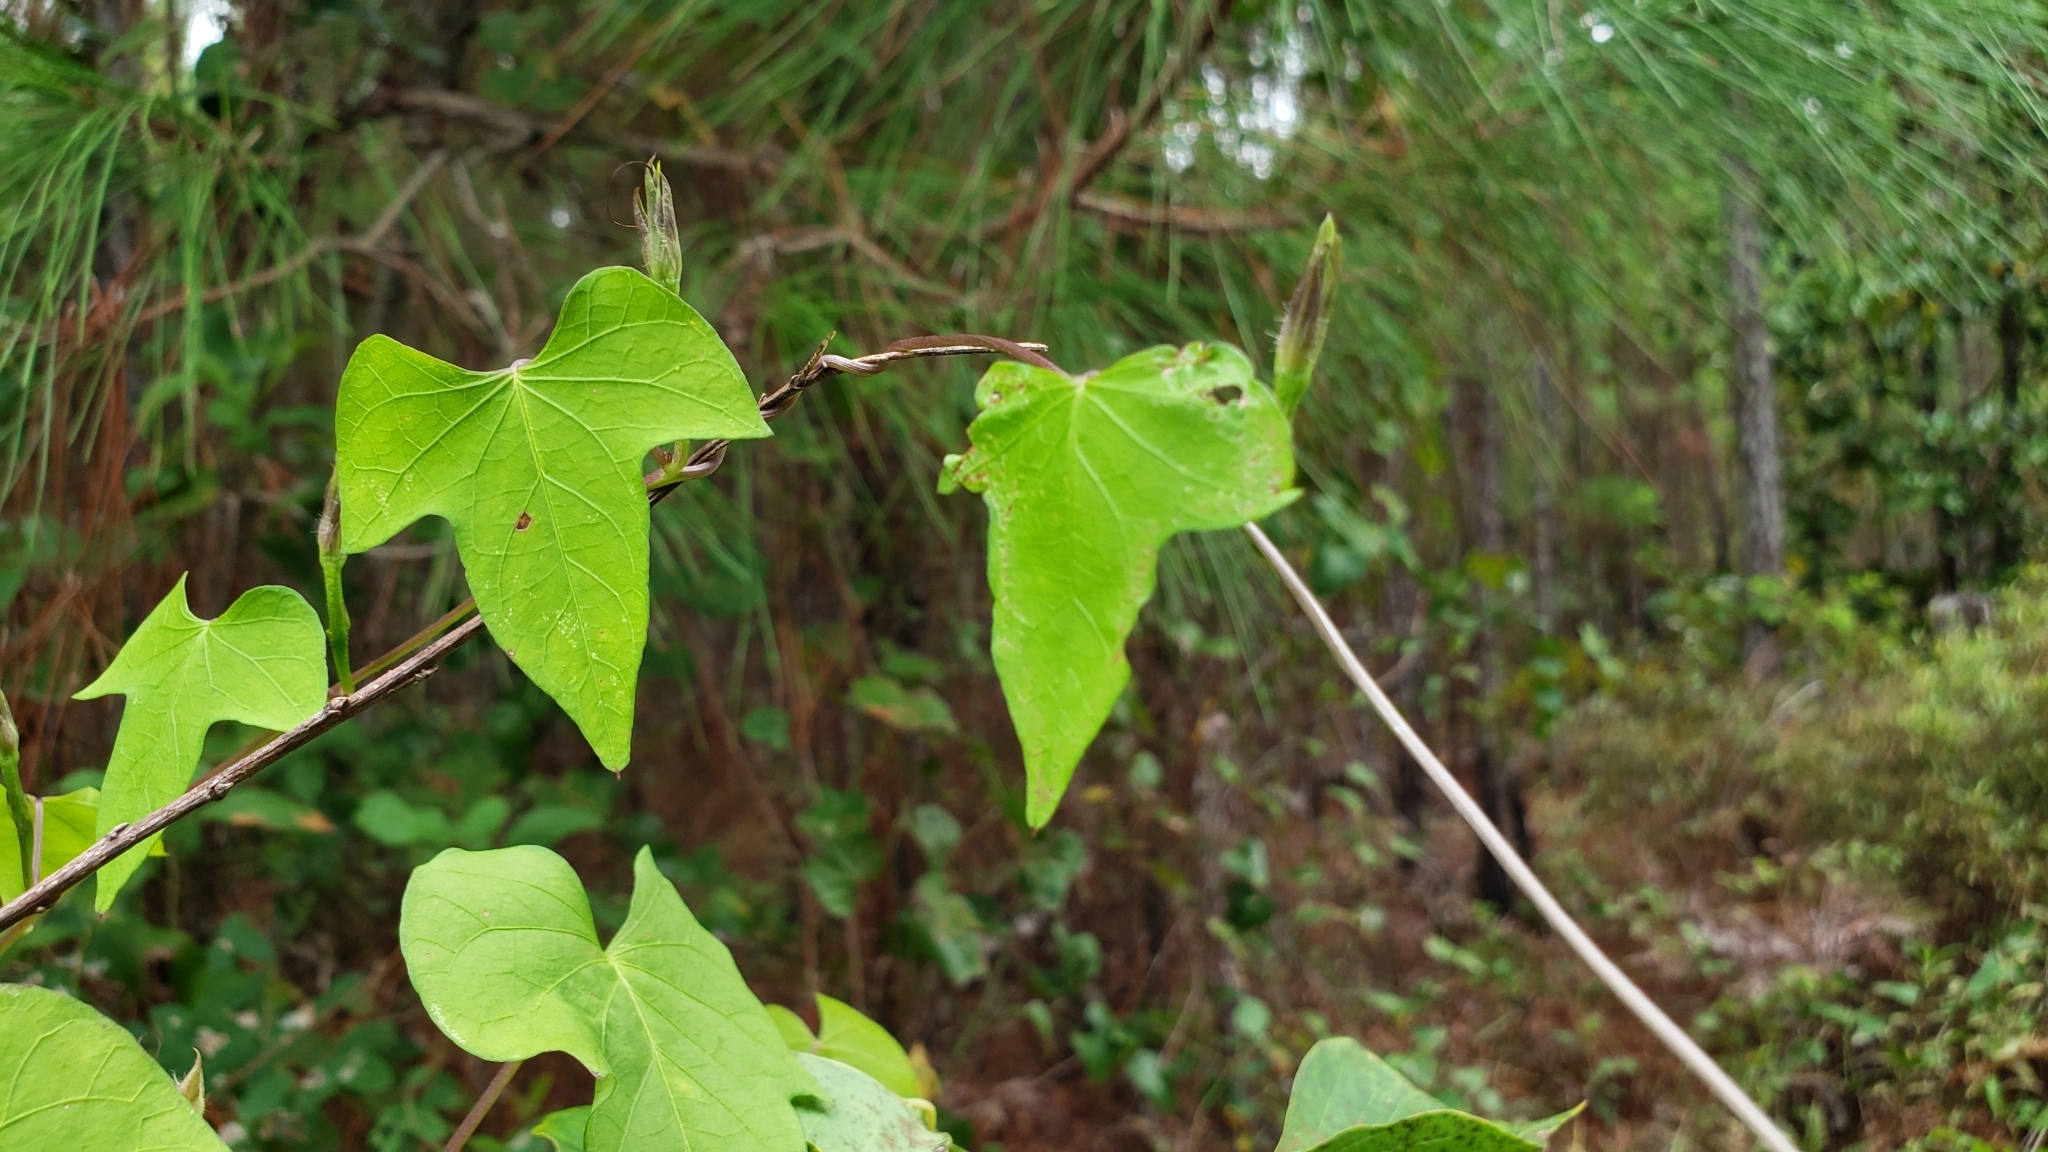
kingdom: Plantae
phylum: Tracheophyta
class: Magnoliopsida
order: Solanales
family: Convolvulaceae
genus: Ipomoea
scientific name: Ipomoea cordatotriloba
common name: Cotton morning glory
